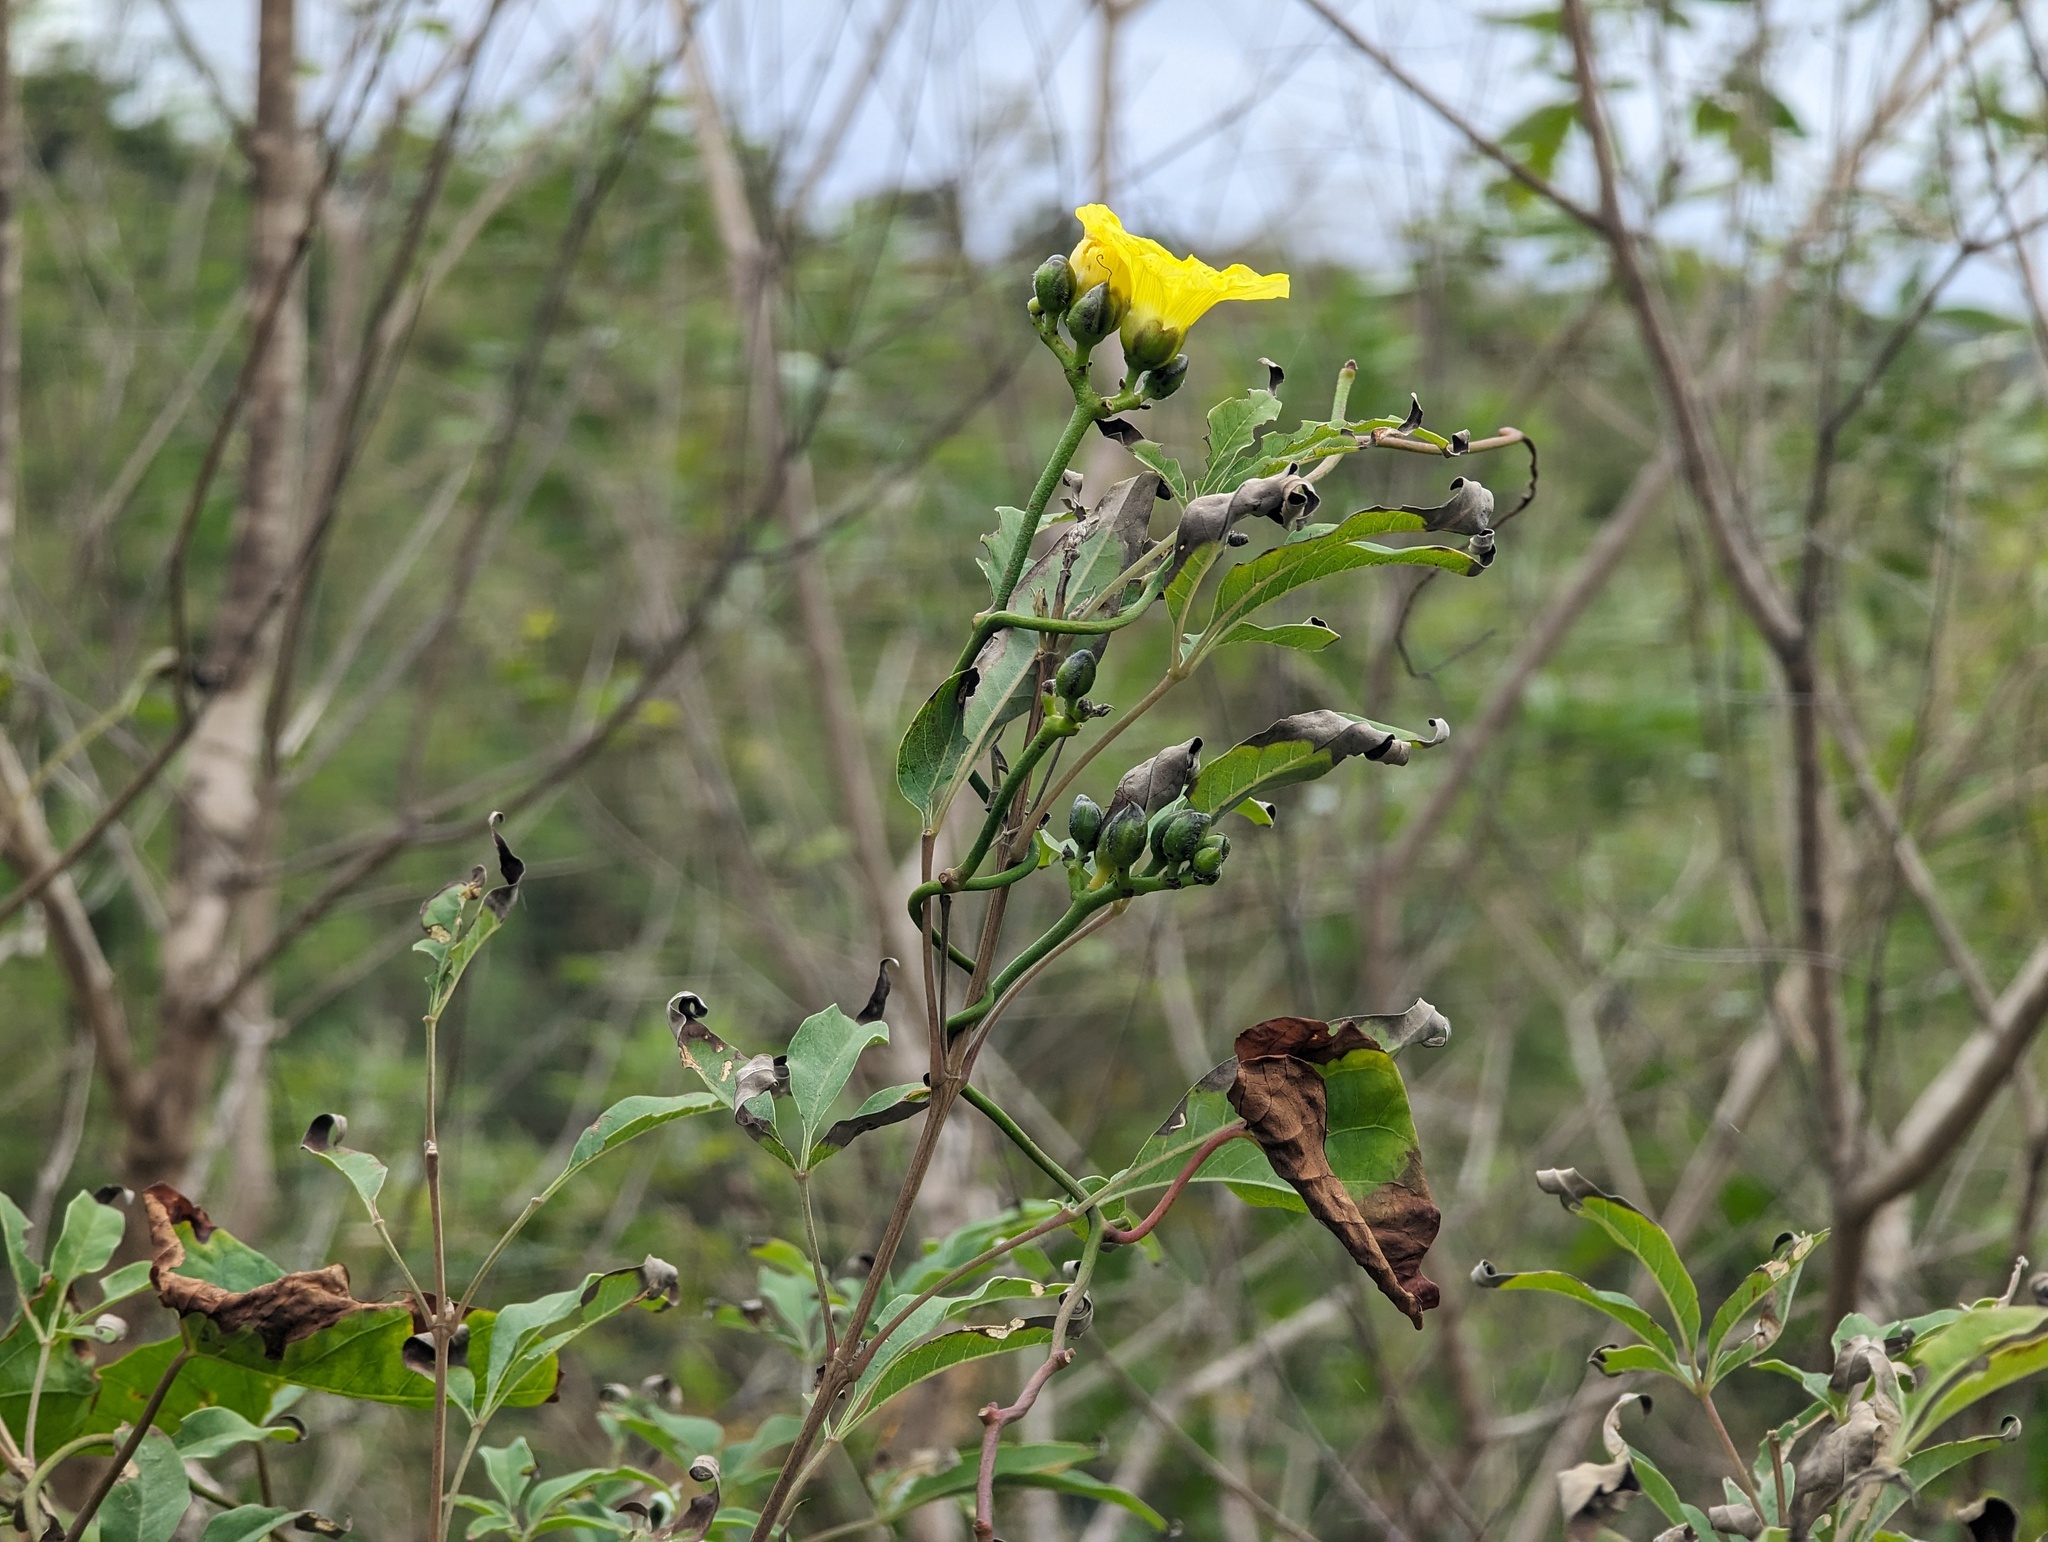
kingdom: Plantae
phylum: Tracheophyta
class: Magnoliopsida
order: Solanales
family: Convolvulaceae
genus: Merremia
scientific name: Merremia gemella
